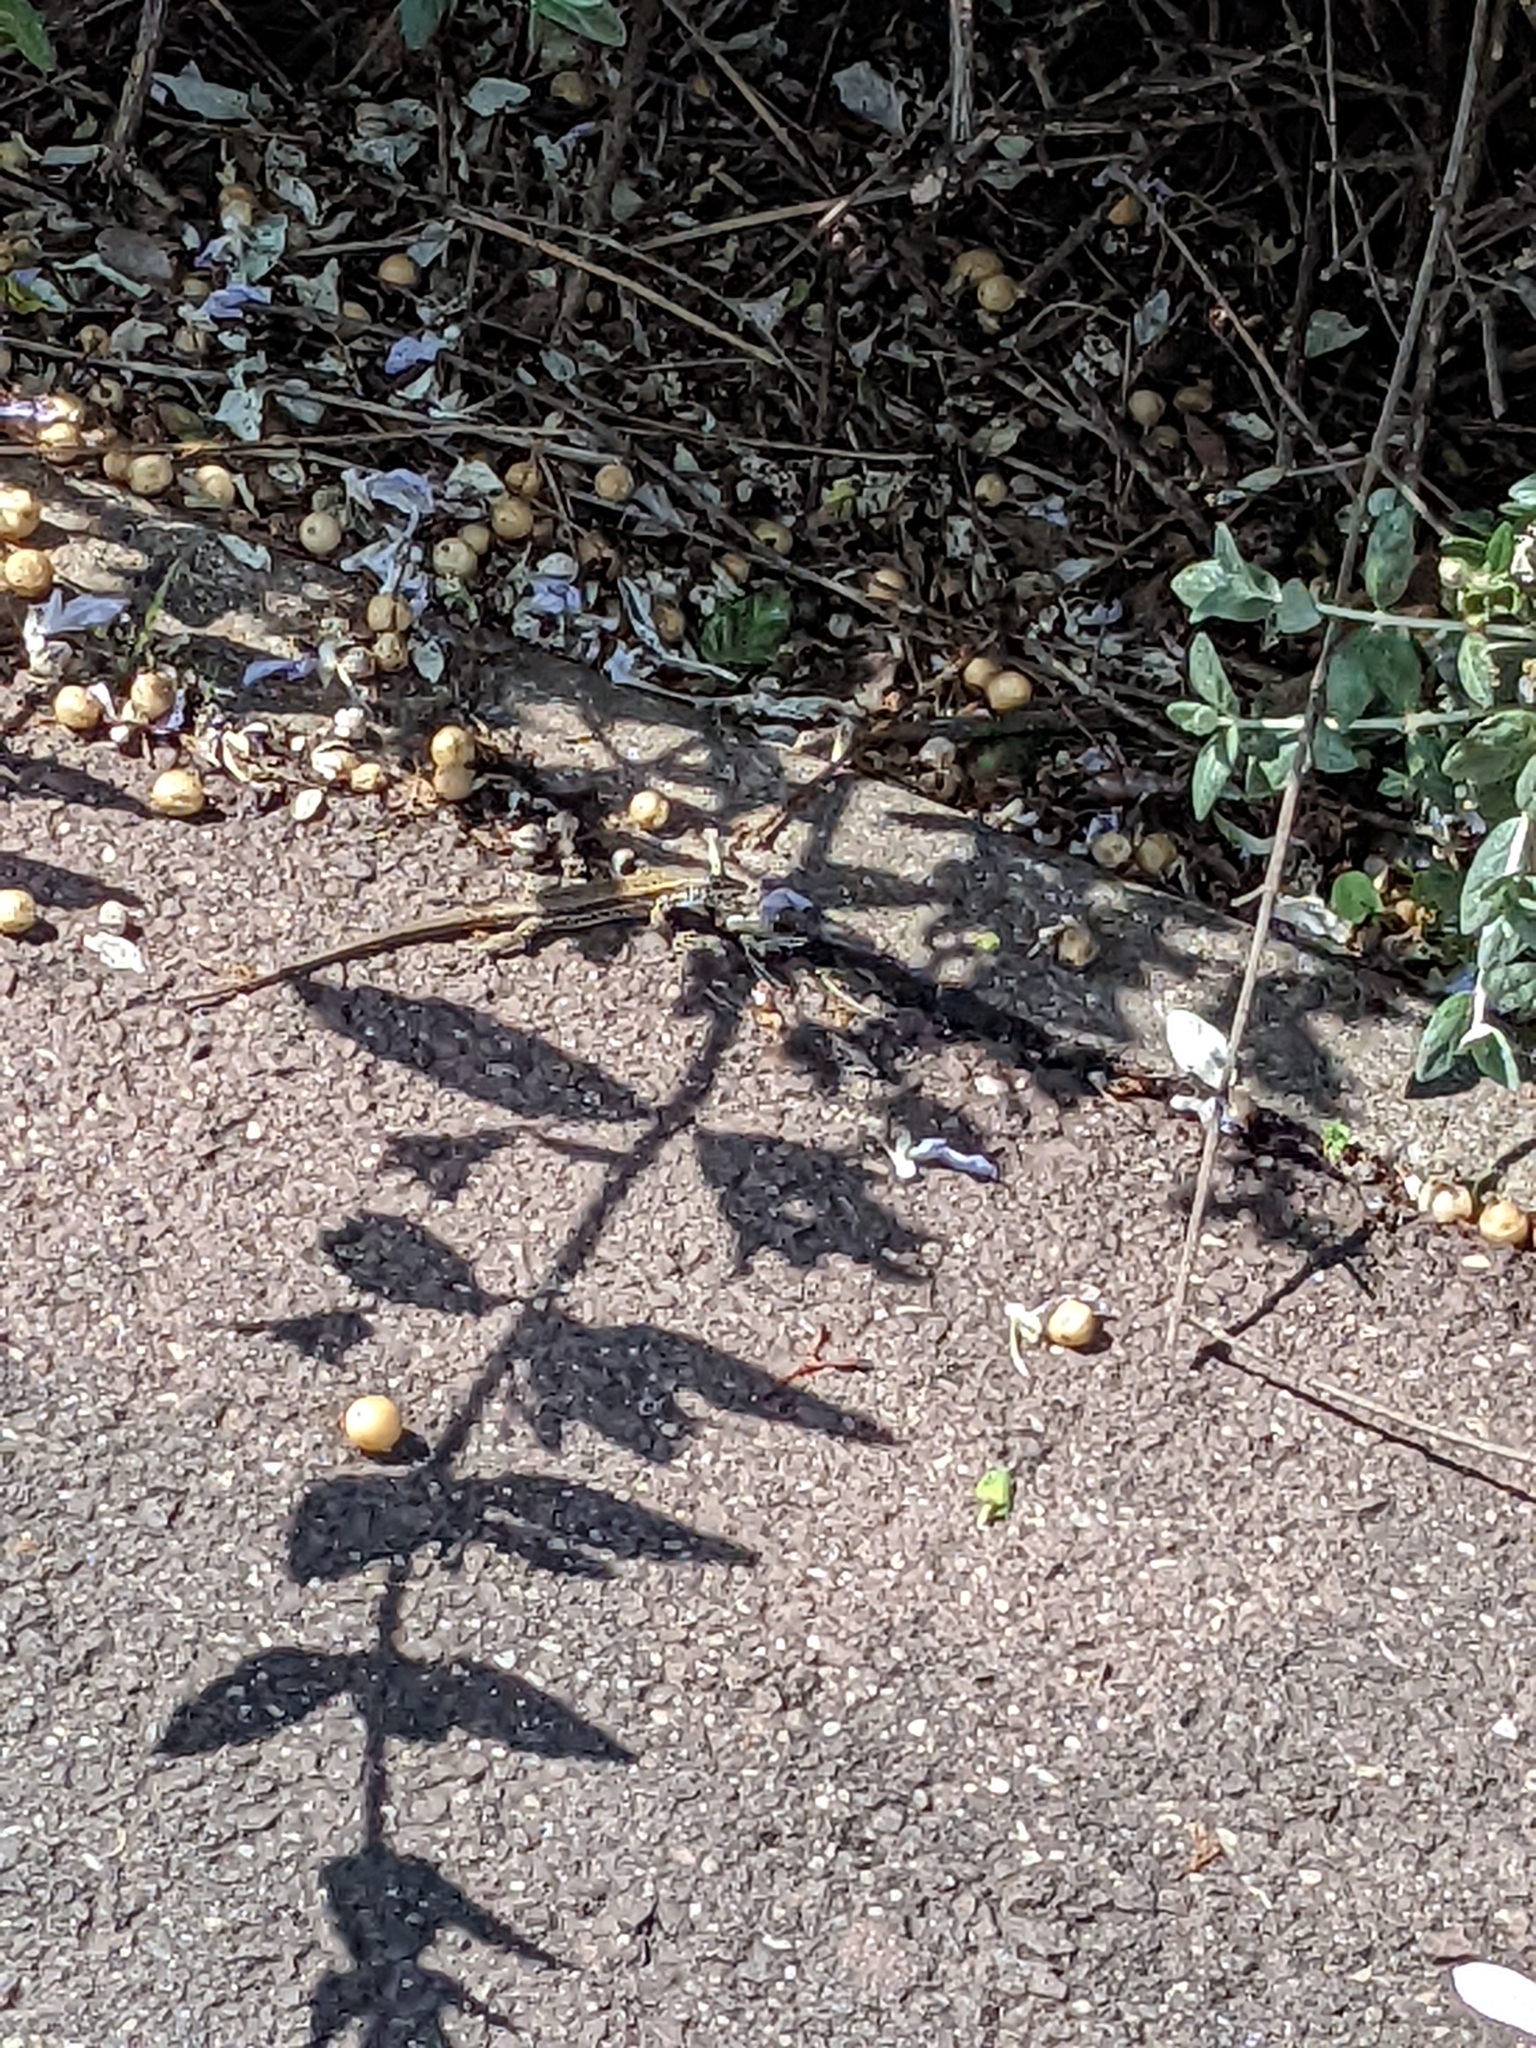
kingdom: Animalia
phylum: Chordata
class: Squamata
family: Lacertidae
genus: Podarcis
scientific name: Podarcis muralis
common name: Common wall lizard
